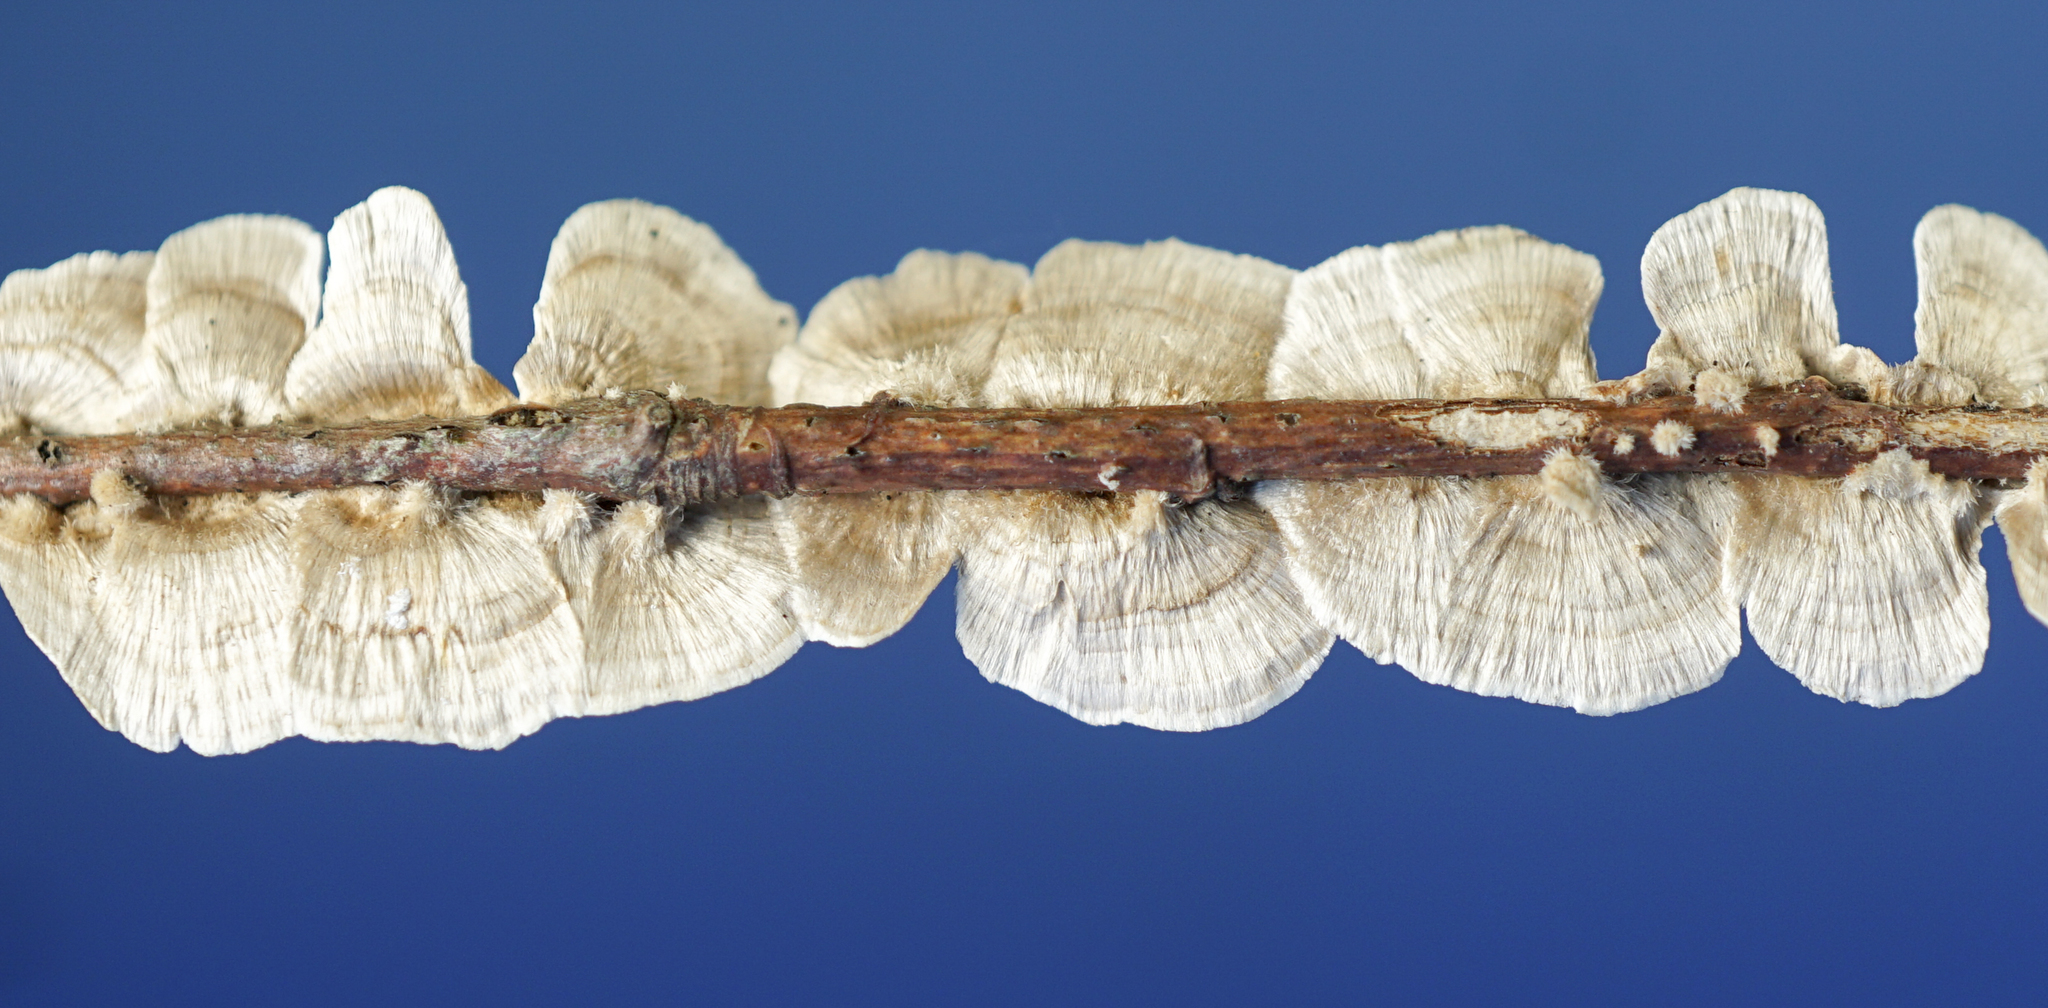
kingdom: Fungi
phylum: Basidiomycota
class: Agaricomycetes
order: Russulales
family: Stereaceae
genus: Stereum
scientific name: Stereum striatum
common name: Silky parchment
